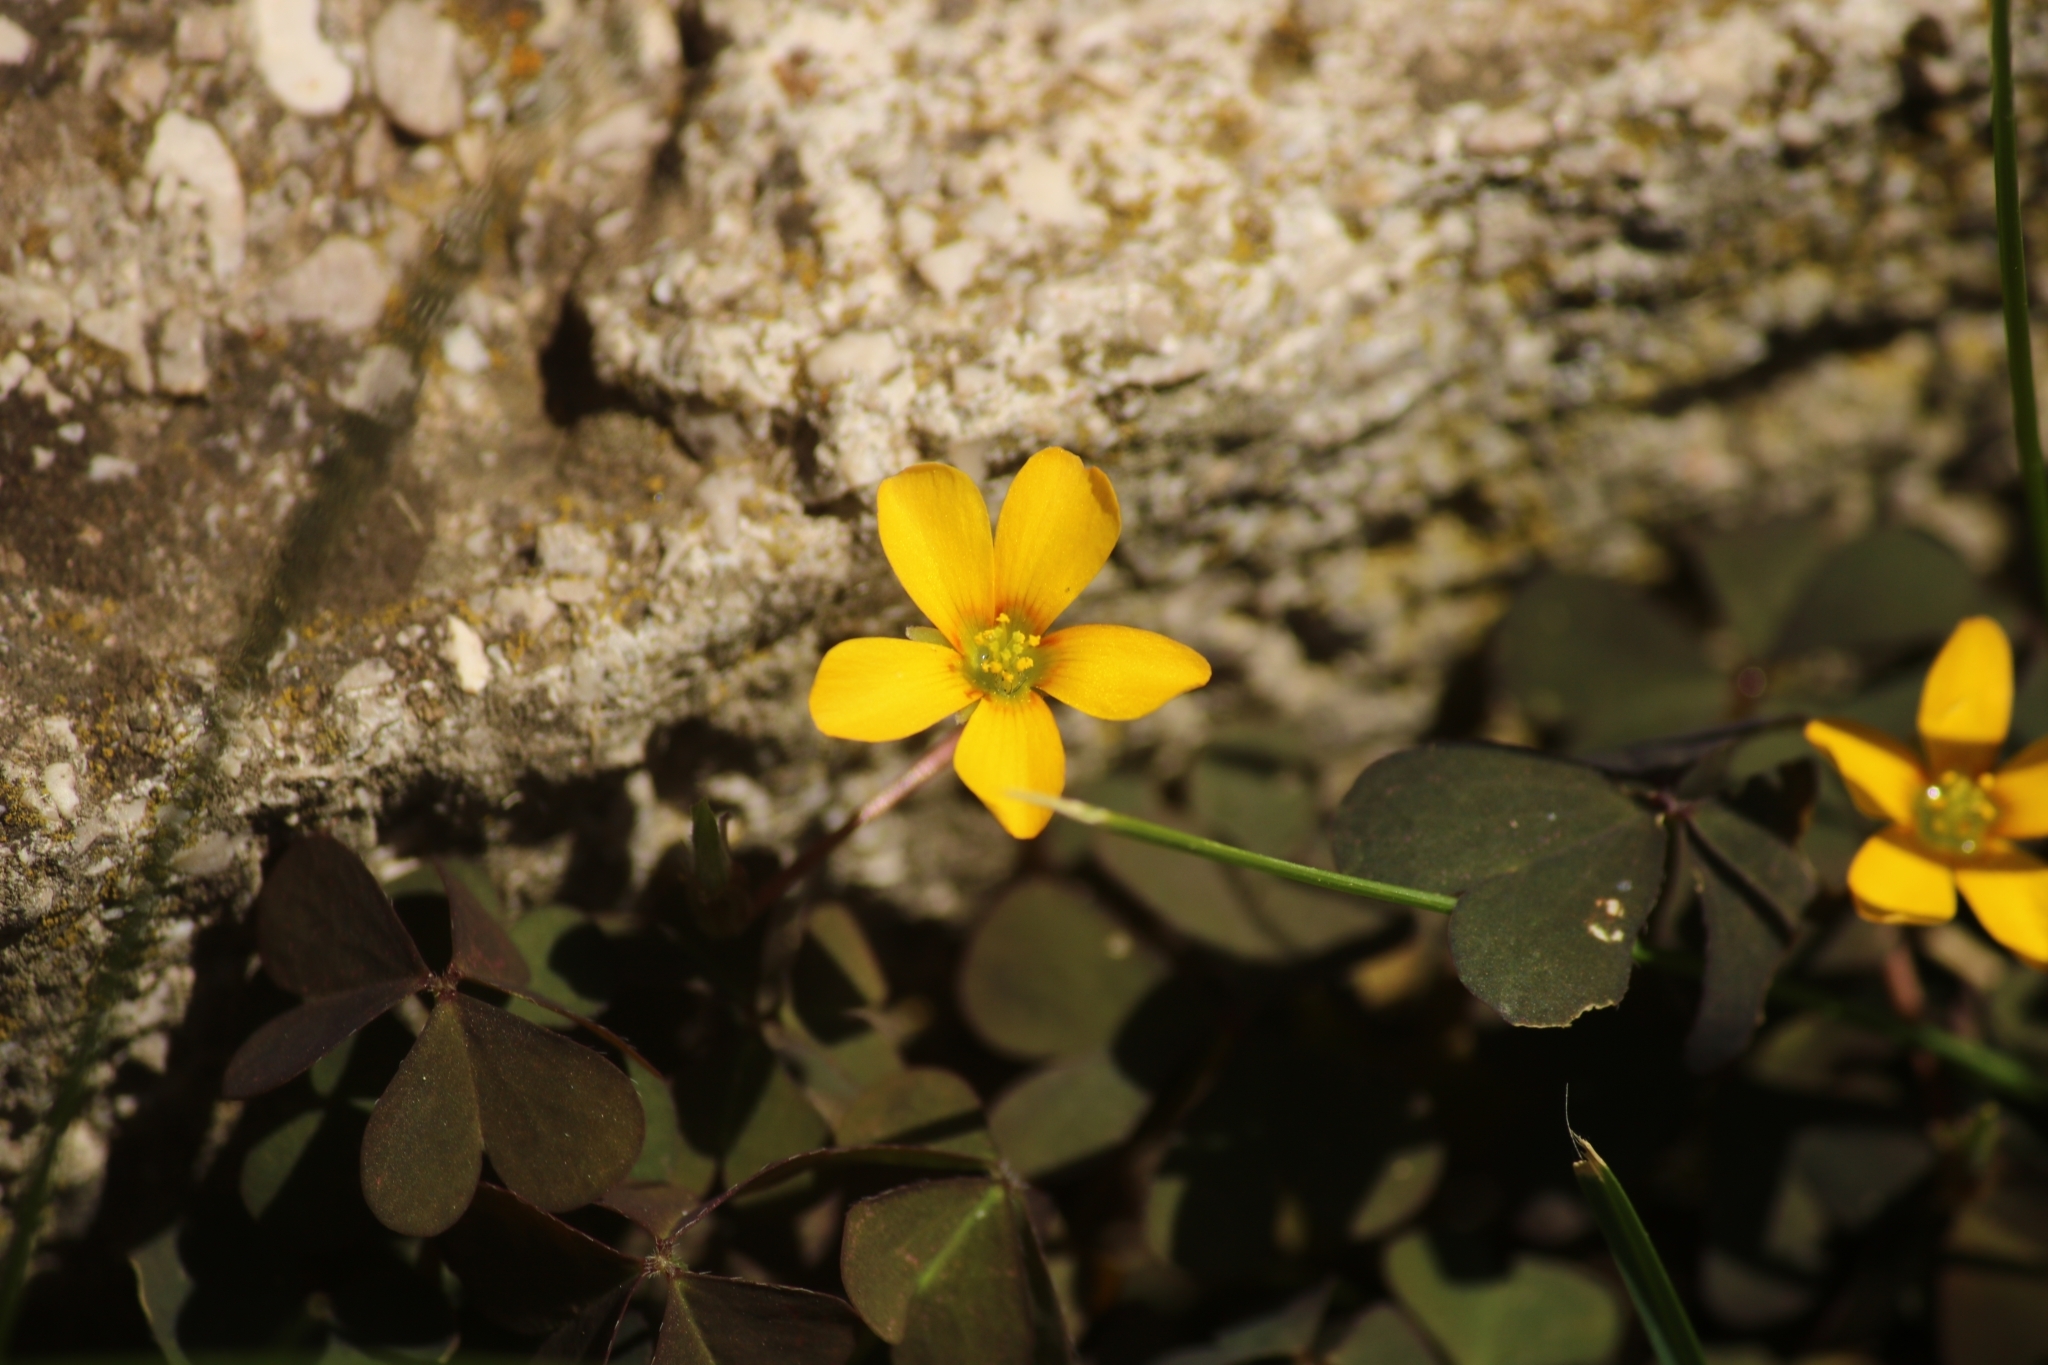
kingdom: Plantae
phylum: Tracheophyta
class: Magnoliopsida
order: Oxalidales
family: Oxalidaceae
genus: Oxalis
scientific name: Oxalis corniculata
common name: Procumbent yellow-sorrel
